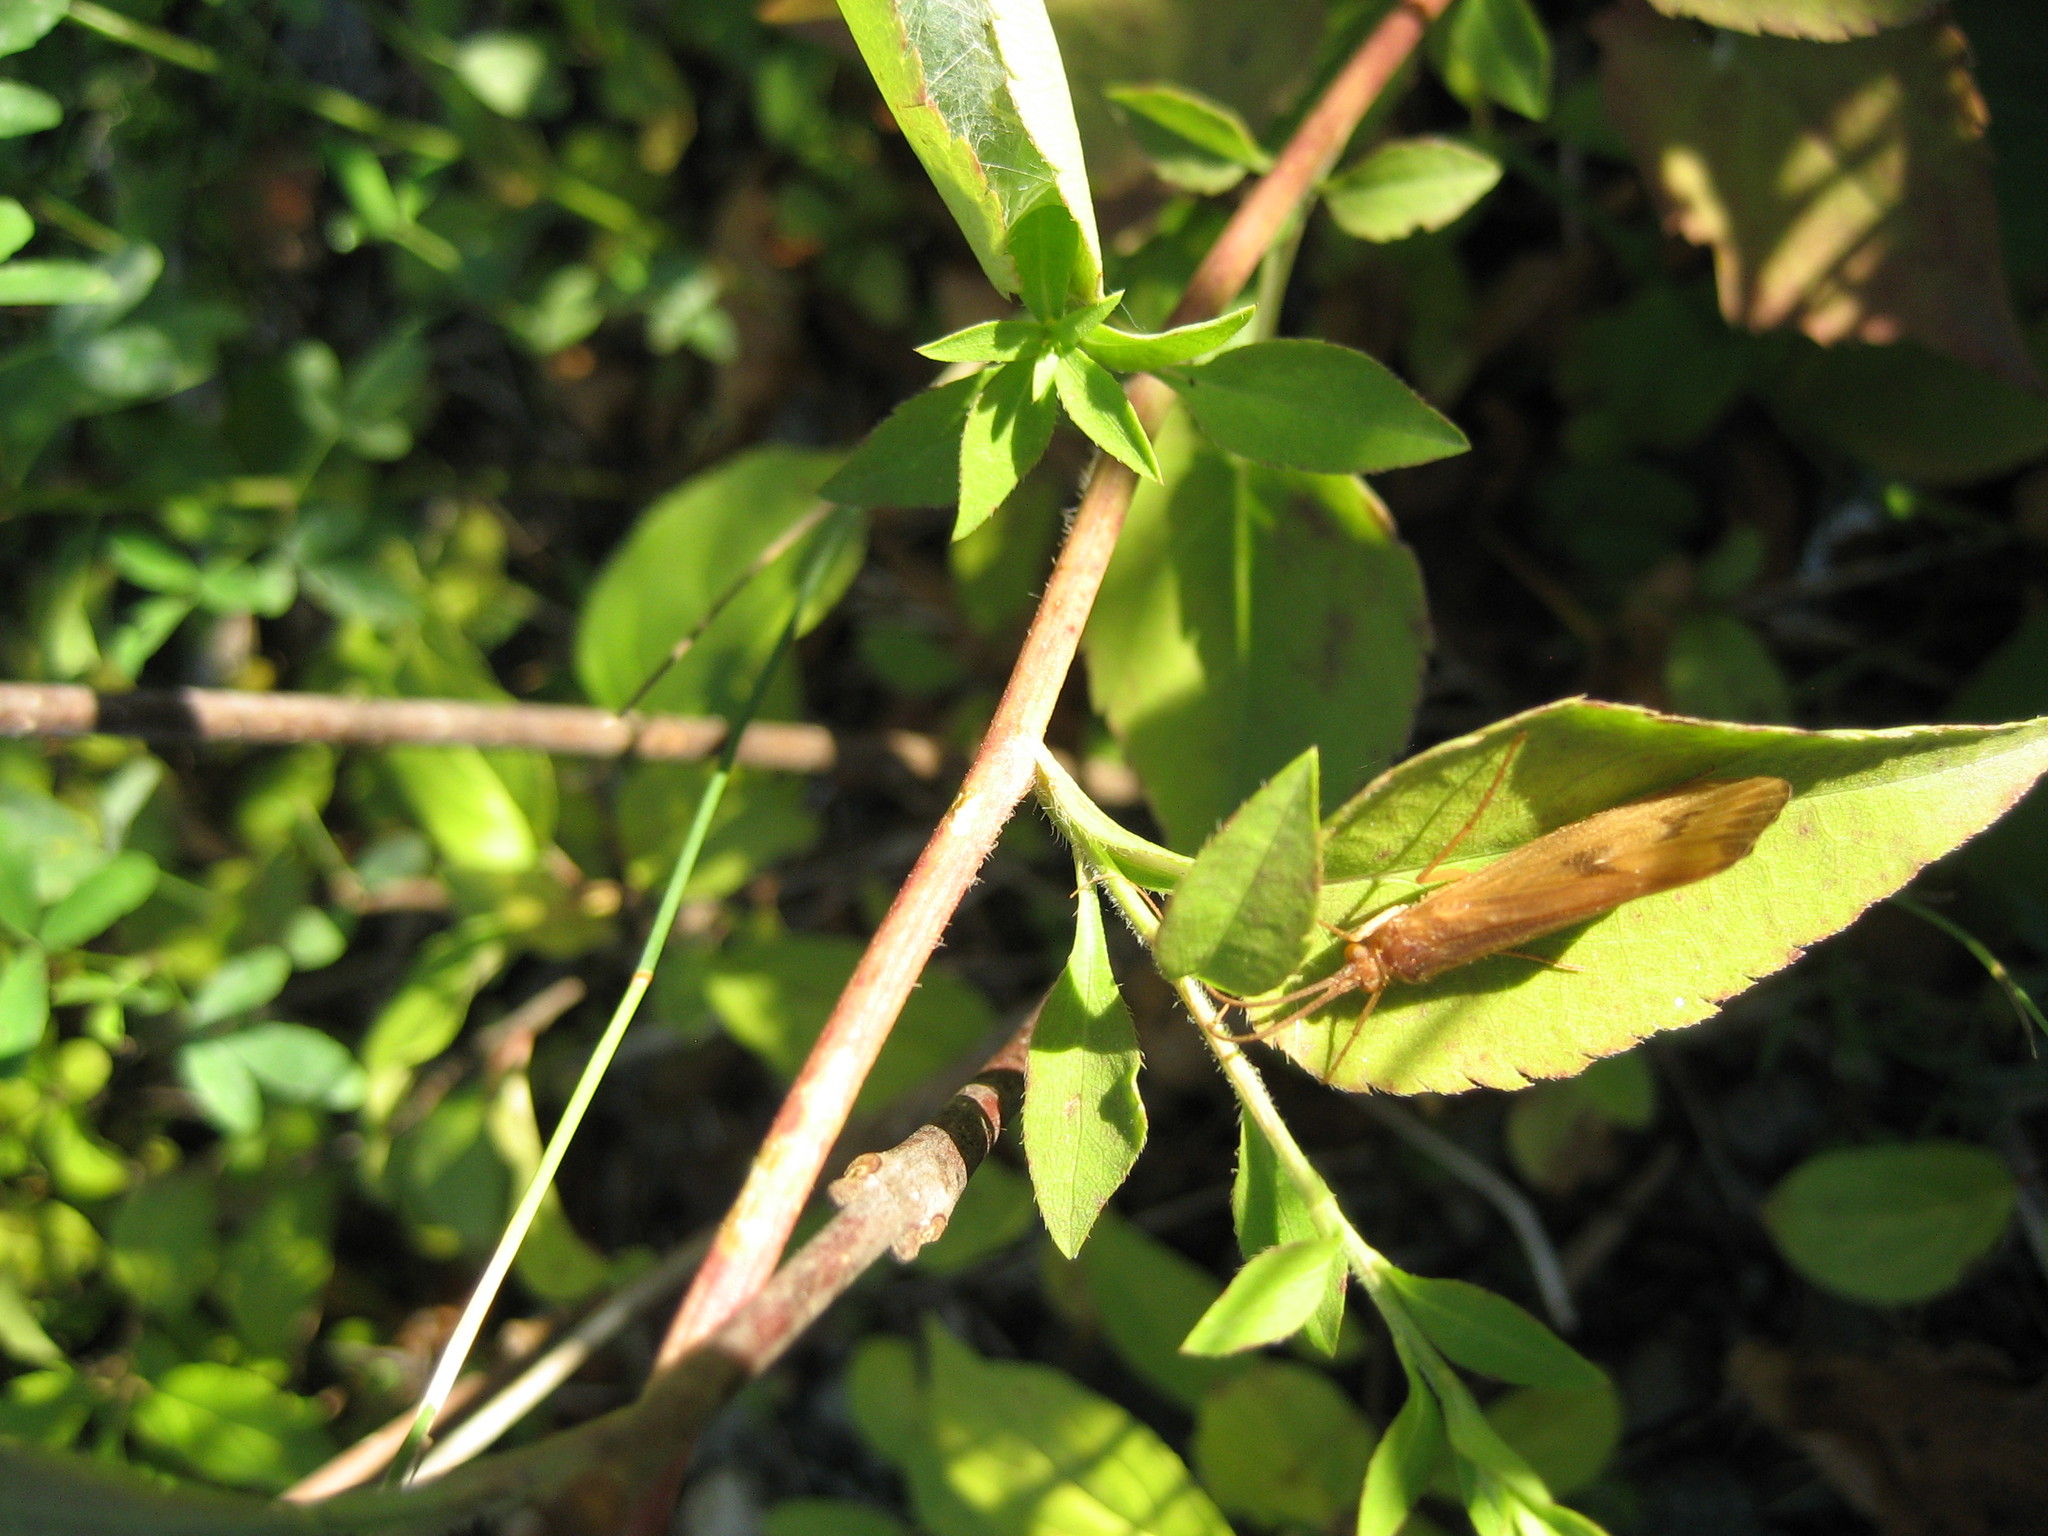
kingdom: Plantae
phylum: Tracheophyta
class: Magnoliopsida
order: Asterales
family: Asteraceae
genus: Symphyotrichum
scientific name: Symphyotrichum cordifolium
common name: Beeweed
